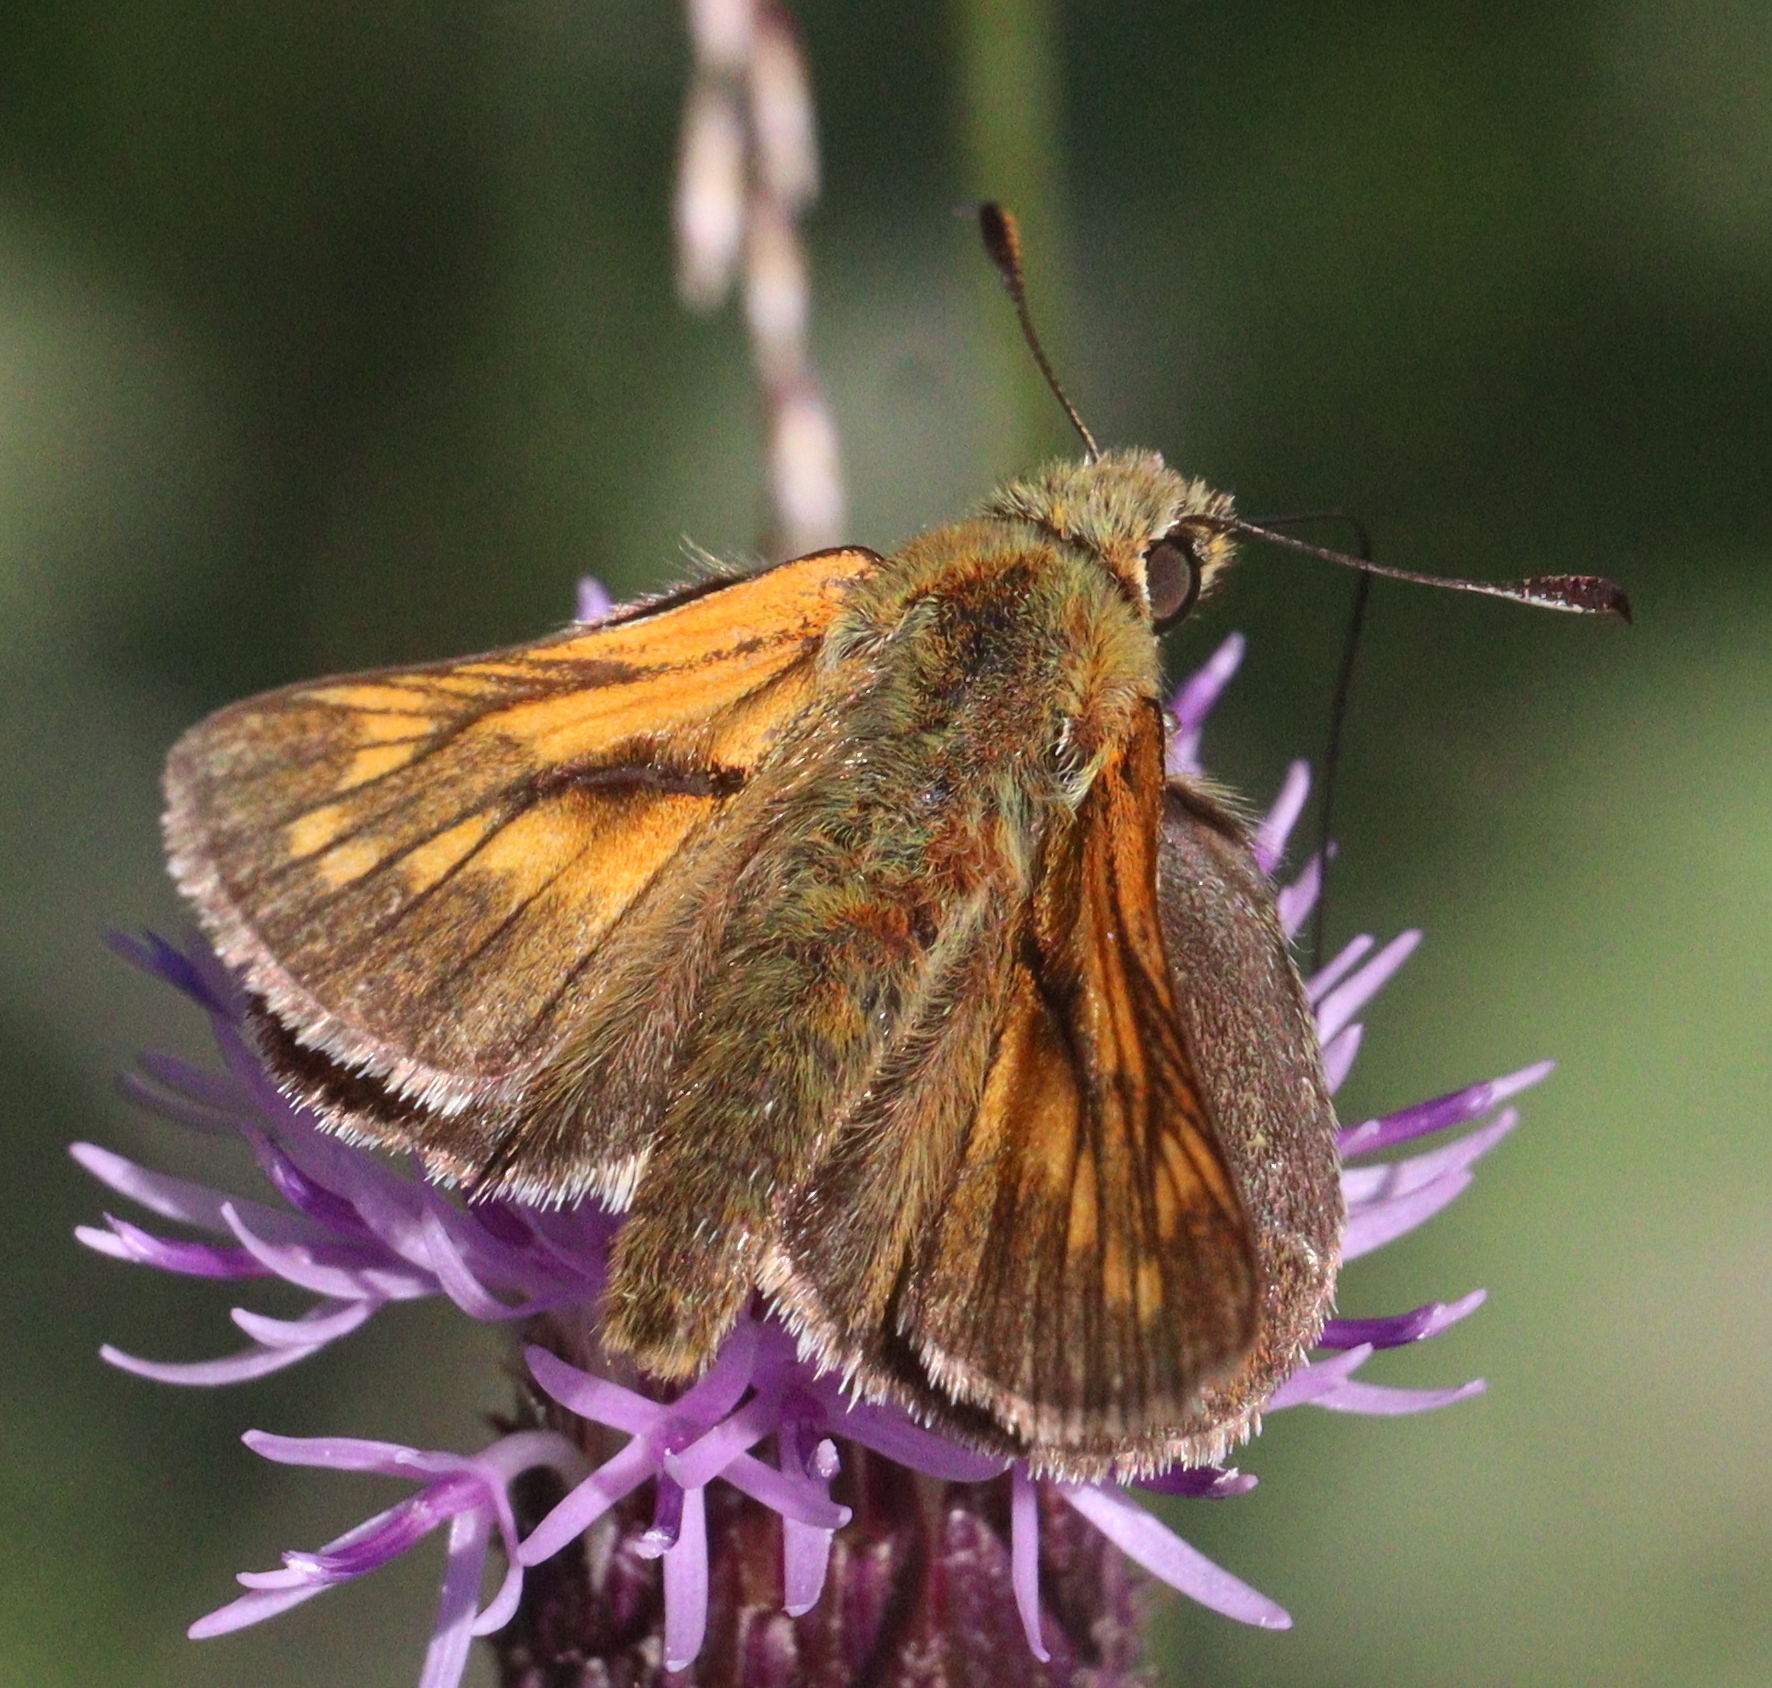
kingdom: Animalia
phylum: Arthropoda
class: Insecta
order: Lepidoptera
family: Hesperiidae
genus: Ochlodes
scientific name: Ochlodes venata
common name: Large skipper
